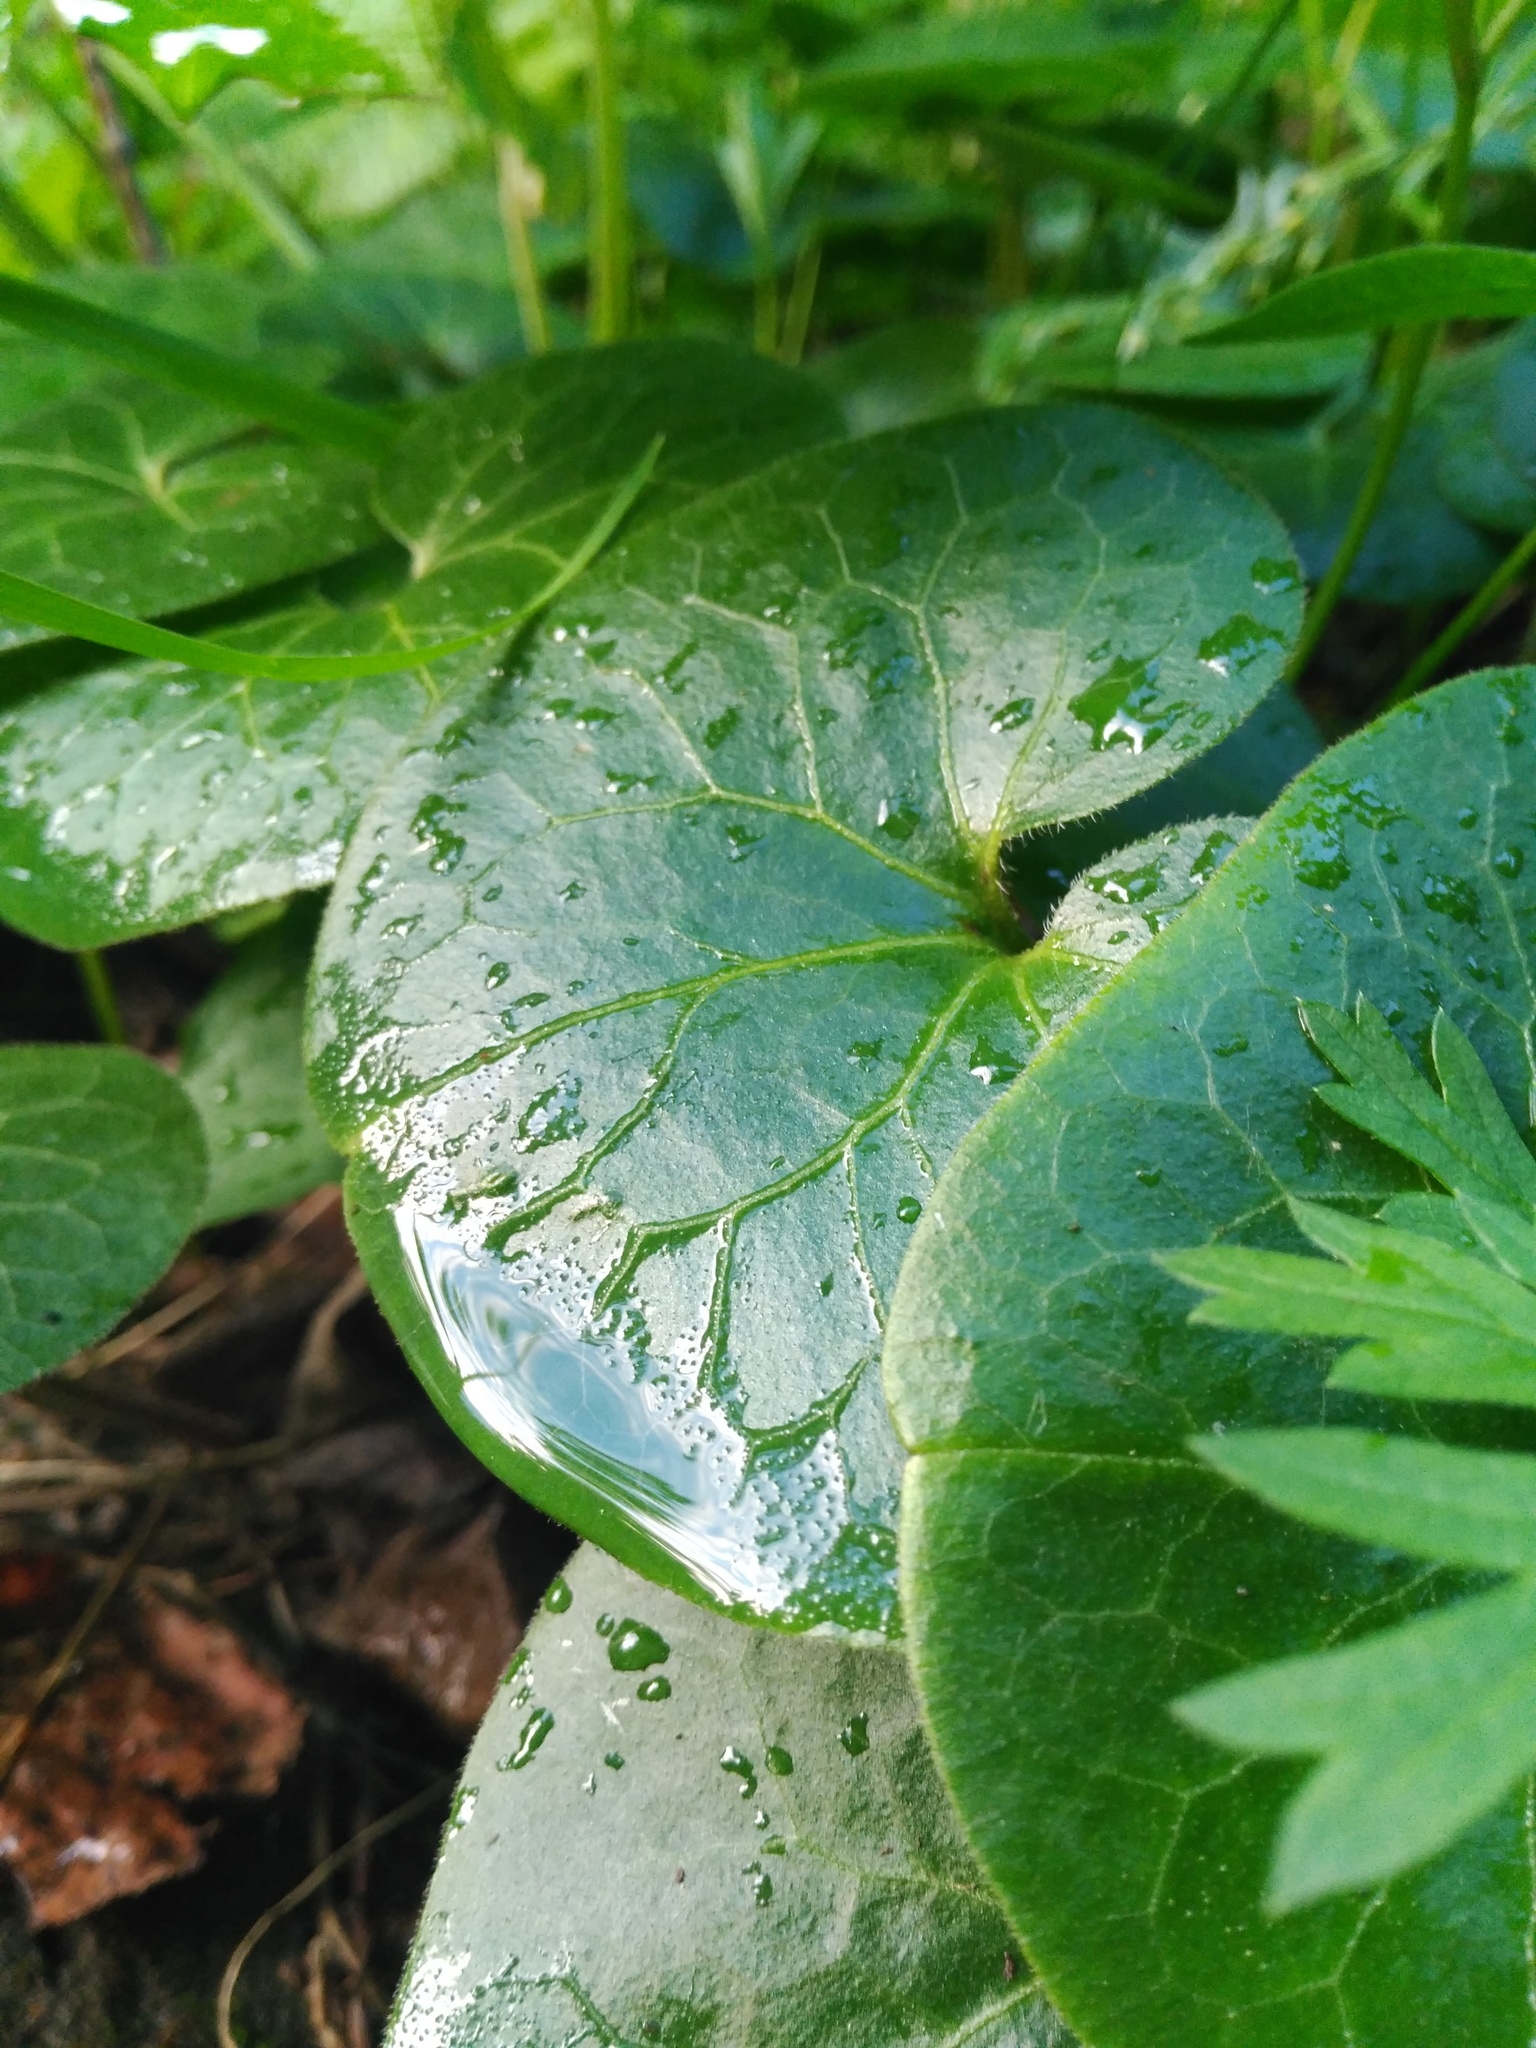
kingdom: Plantae
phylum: Tracheophyta
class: Magnoliopsida
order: Piperales
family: Aristolochiaceae
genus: Asarum
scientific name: Asarum europaeum
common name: Asarabacca
